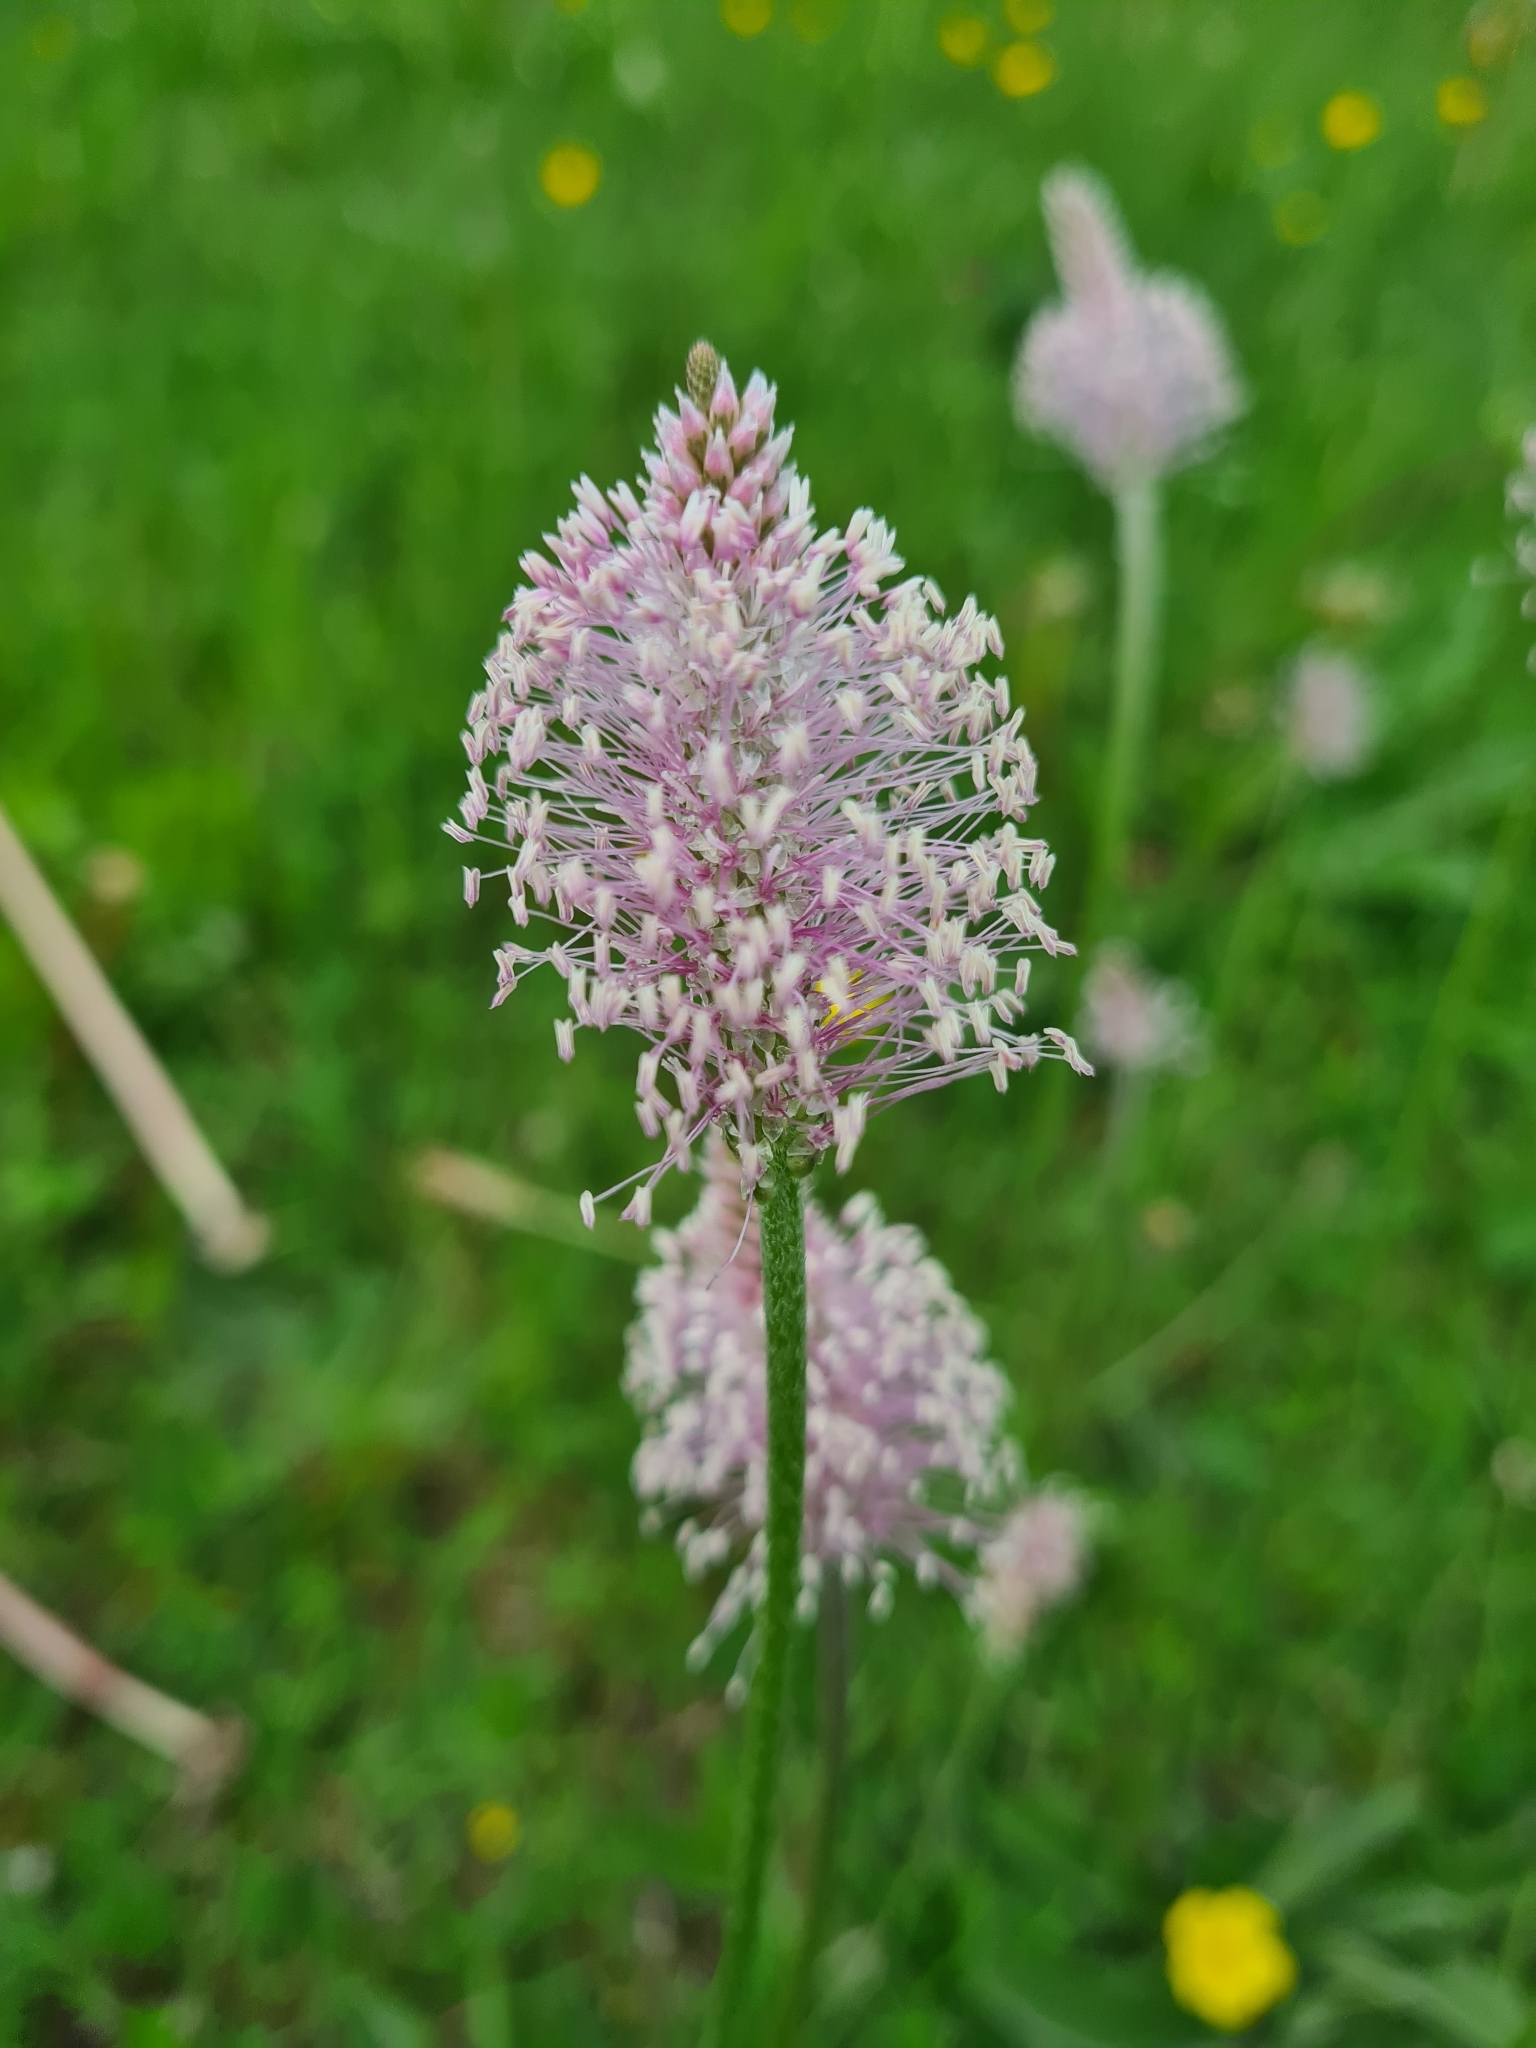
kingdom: Plantae
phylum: Tracheophyta
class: Magnoliopsida
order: Lamiales
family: Plantaginaceae
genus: Plantago
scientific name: Plantago media
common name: Hoary plantain
